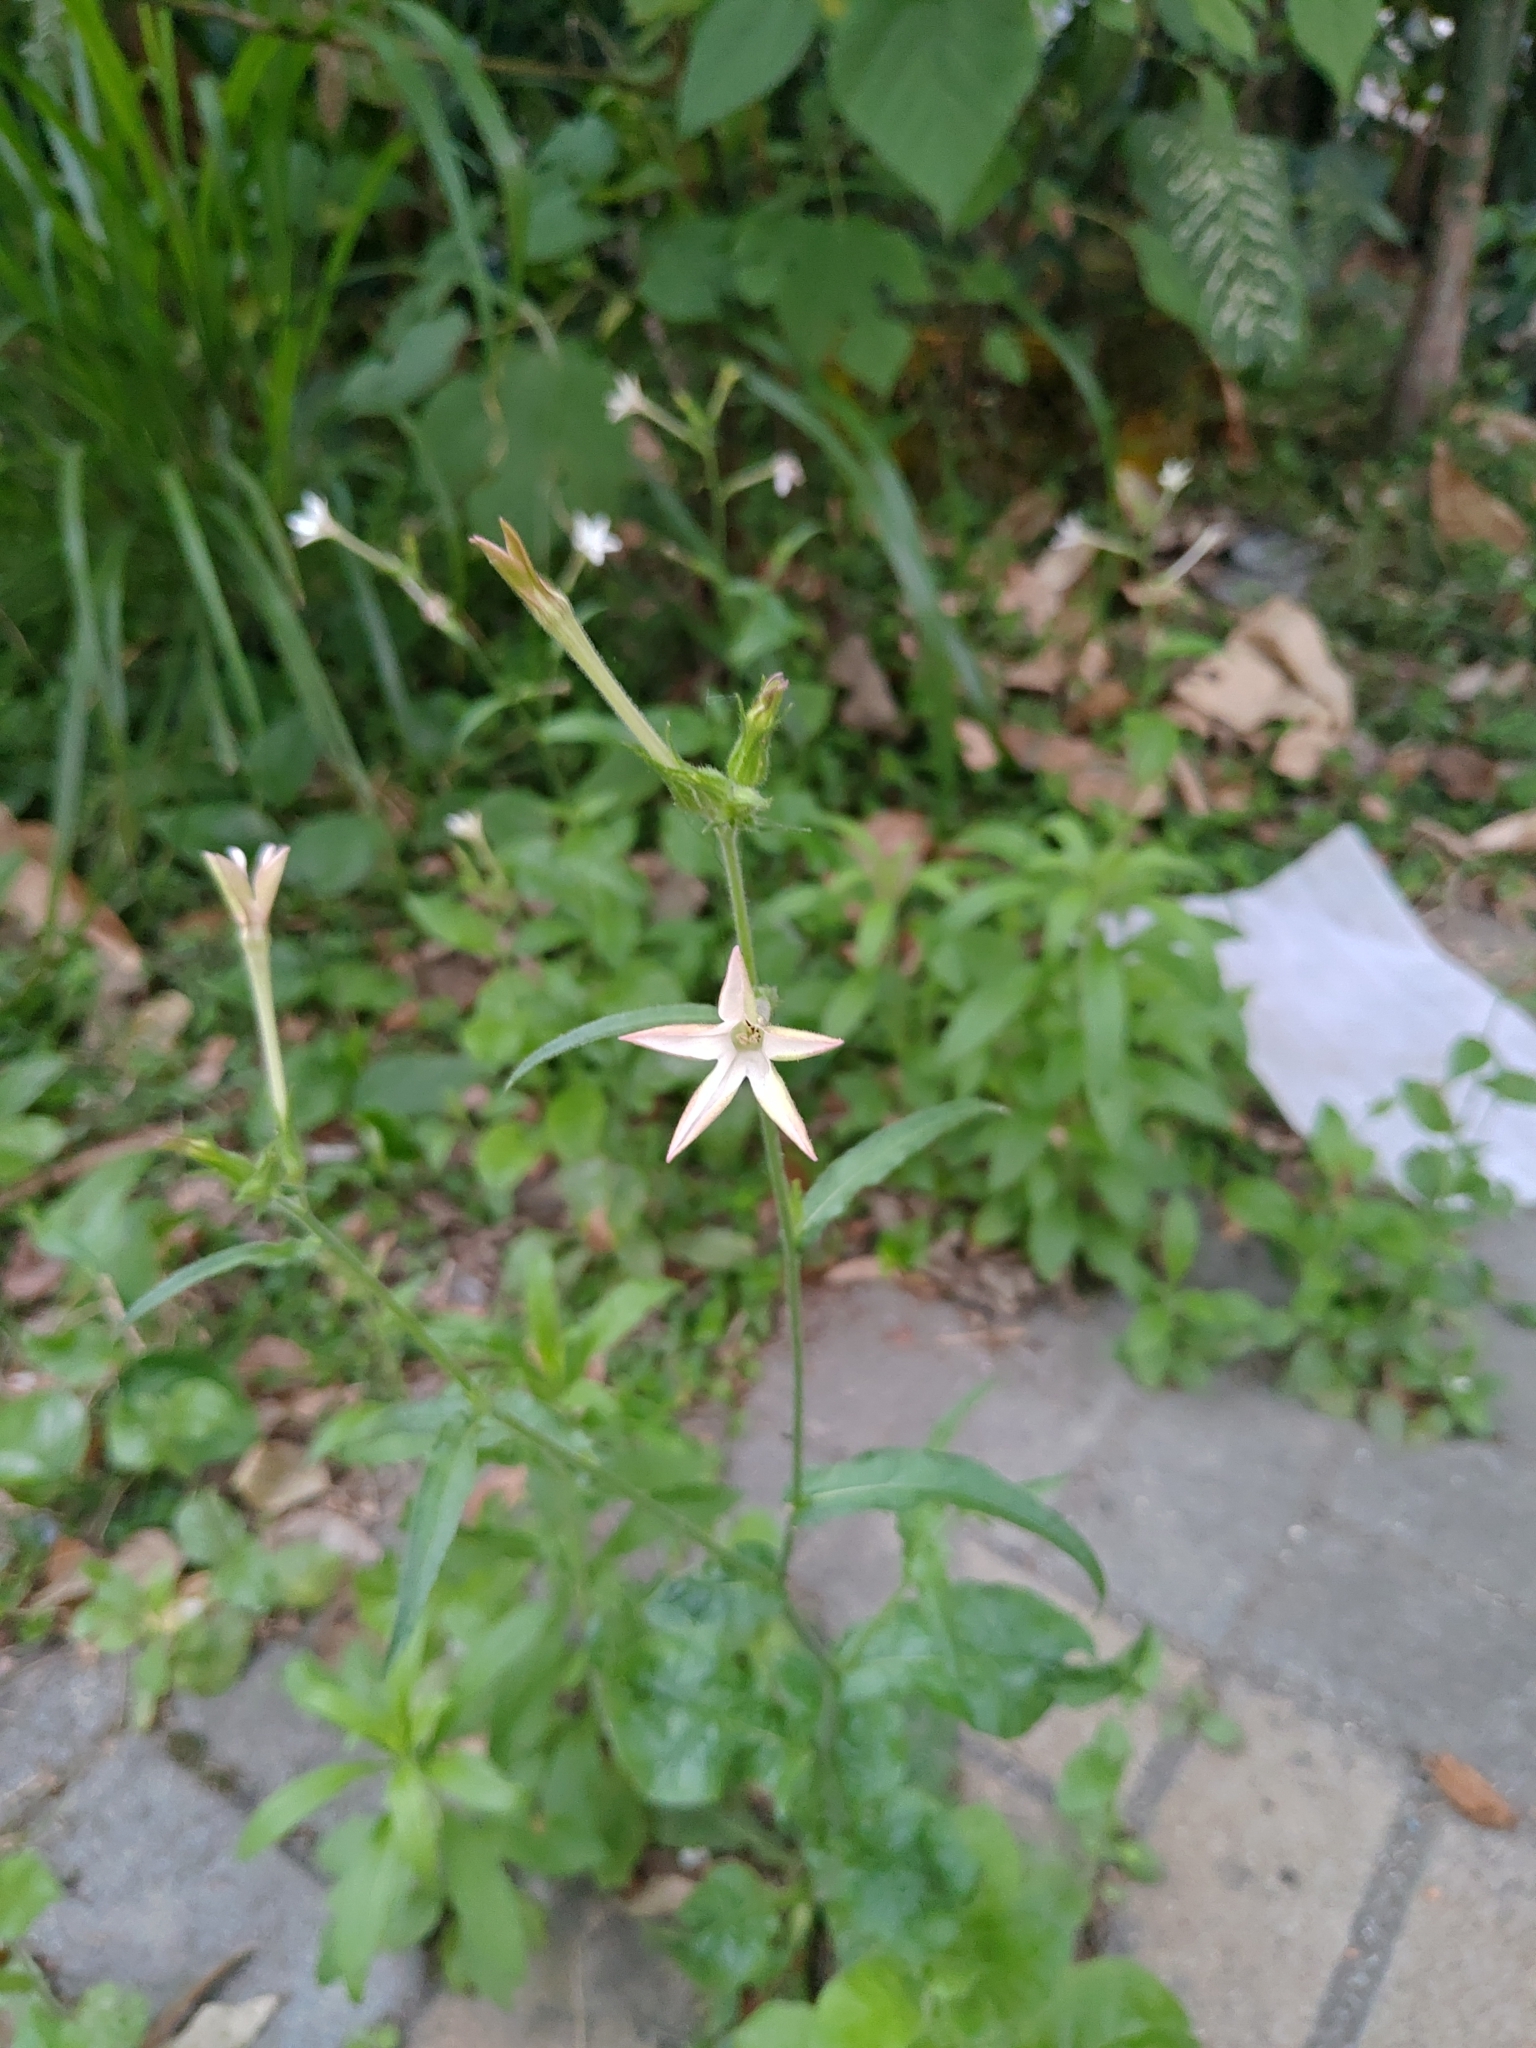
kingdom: Plantae
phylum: Tracheophyta
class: Magnoliopsida
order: Solanales
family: Solanaceae
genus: Nicotiana
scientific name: Nicotiana plumbaginifolia
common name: Tex-mex tobacco
